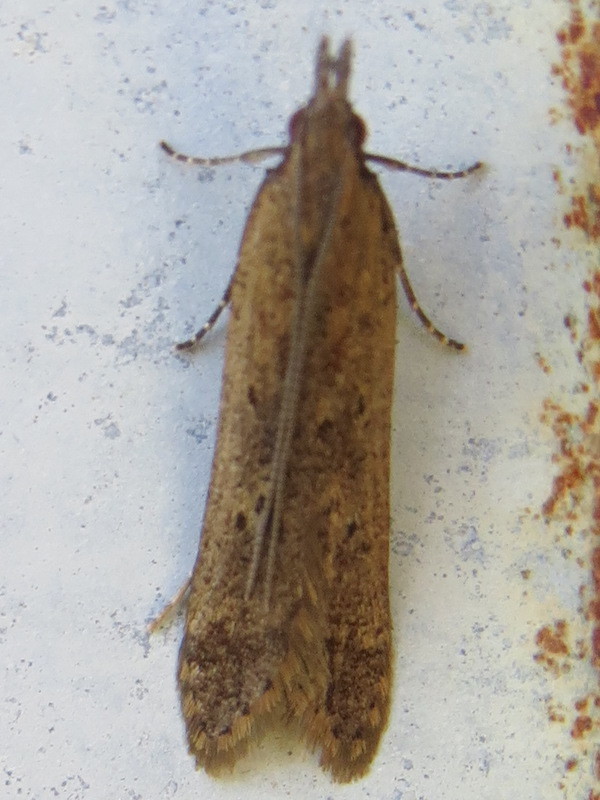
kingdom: Animalia
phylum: Arthropoda
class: Insecta
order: Lepidoptera
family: Gelechiidae
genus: Dichomeris
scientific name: Dichomeris ligulella
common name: Moth
